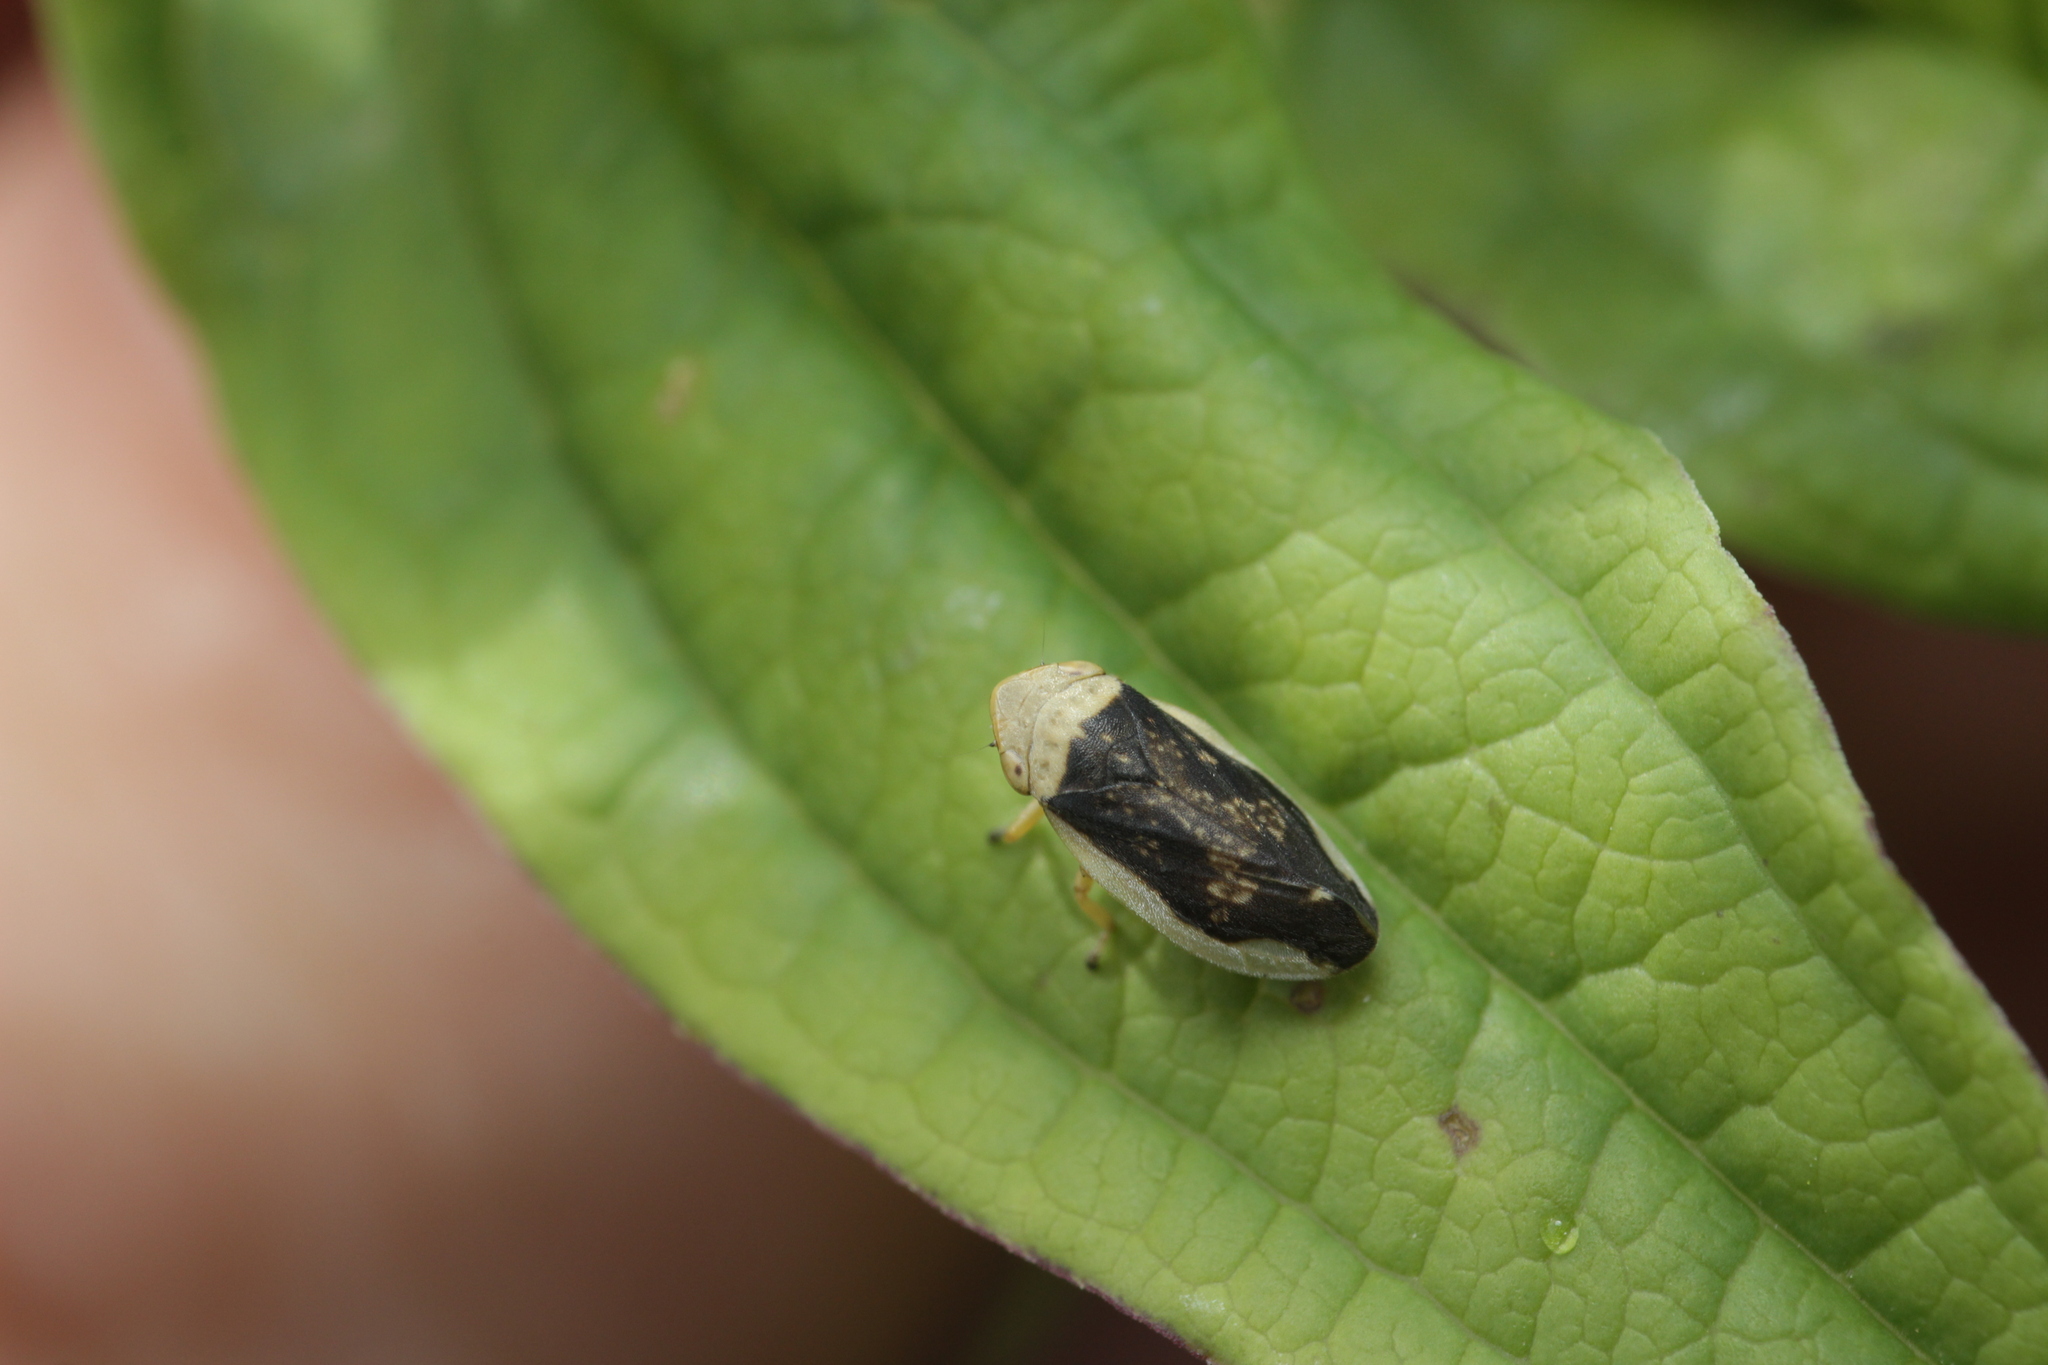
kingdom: Animalia
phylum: Arthropoda
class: Insecta
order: Hemiptera
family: Aphrophoridae
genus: Philaenus
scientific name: Philaenus spumarius
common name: Meadow spittlebug
